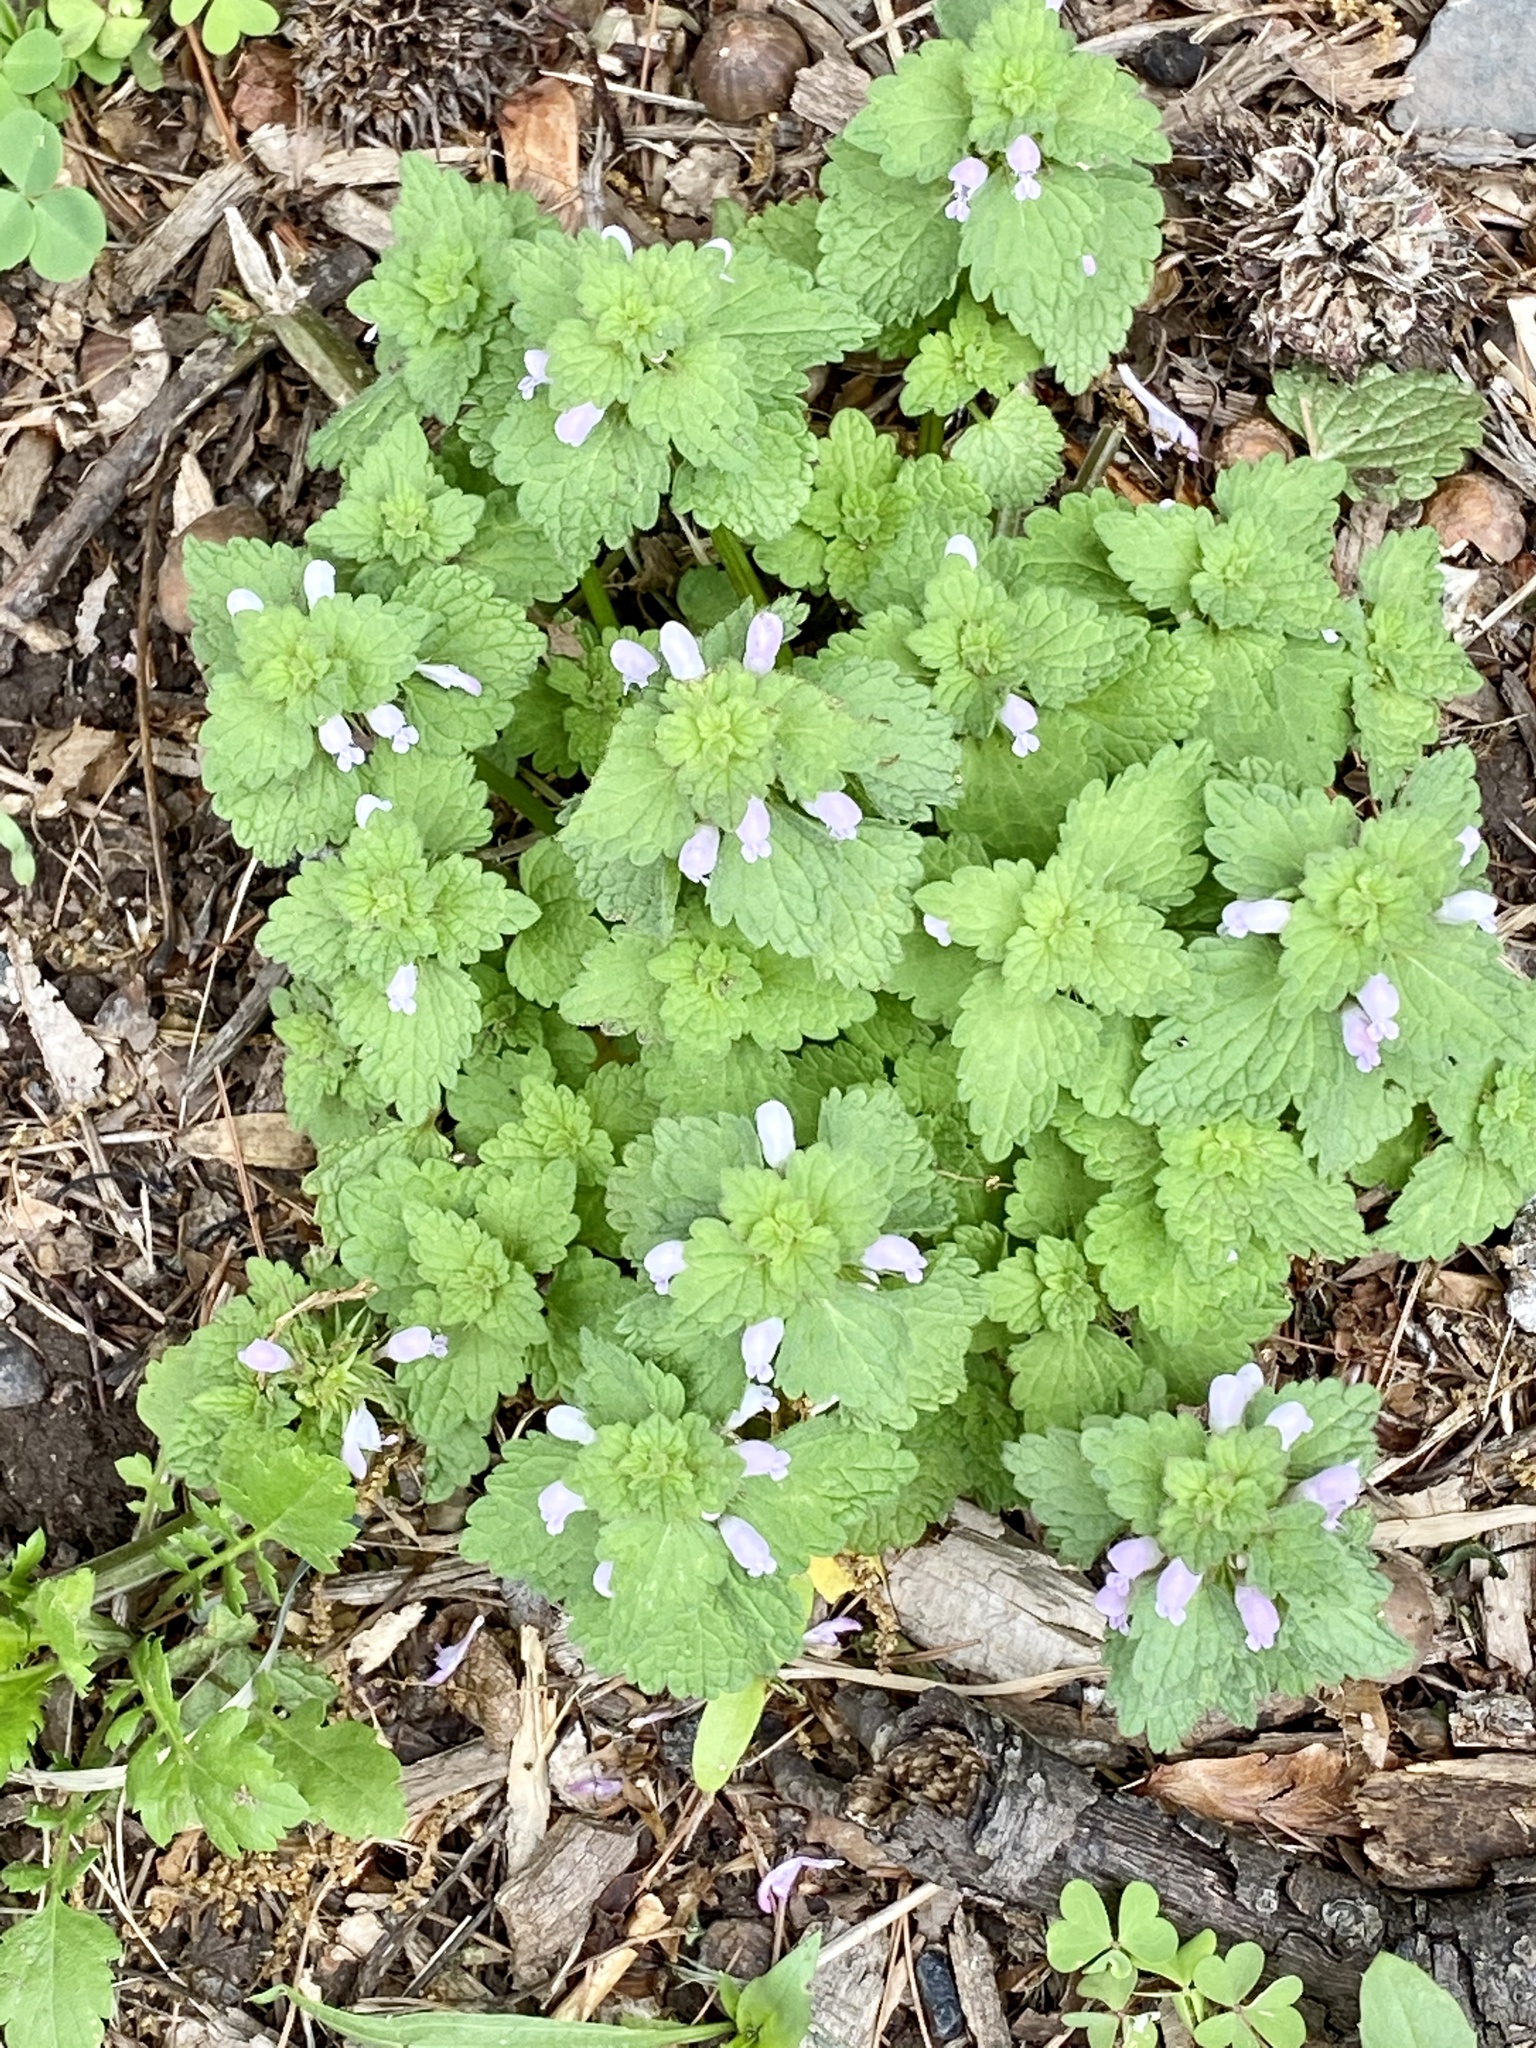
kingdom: Plantae
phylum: Tracheophyta
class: Magnoliopsida
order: Lamiales
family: Lamiaceae
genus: Lamium
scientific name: Lamium purpureum
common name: Red dead-nettle
